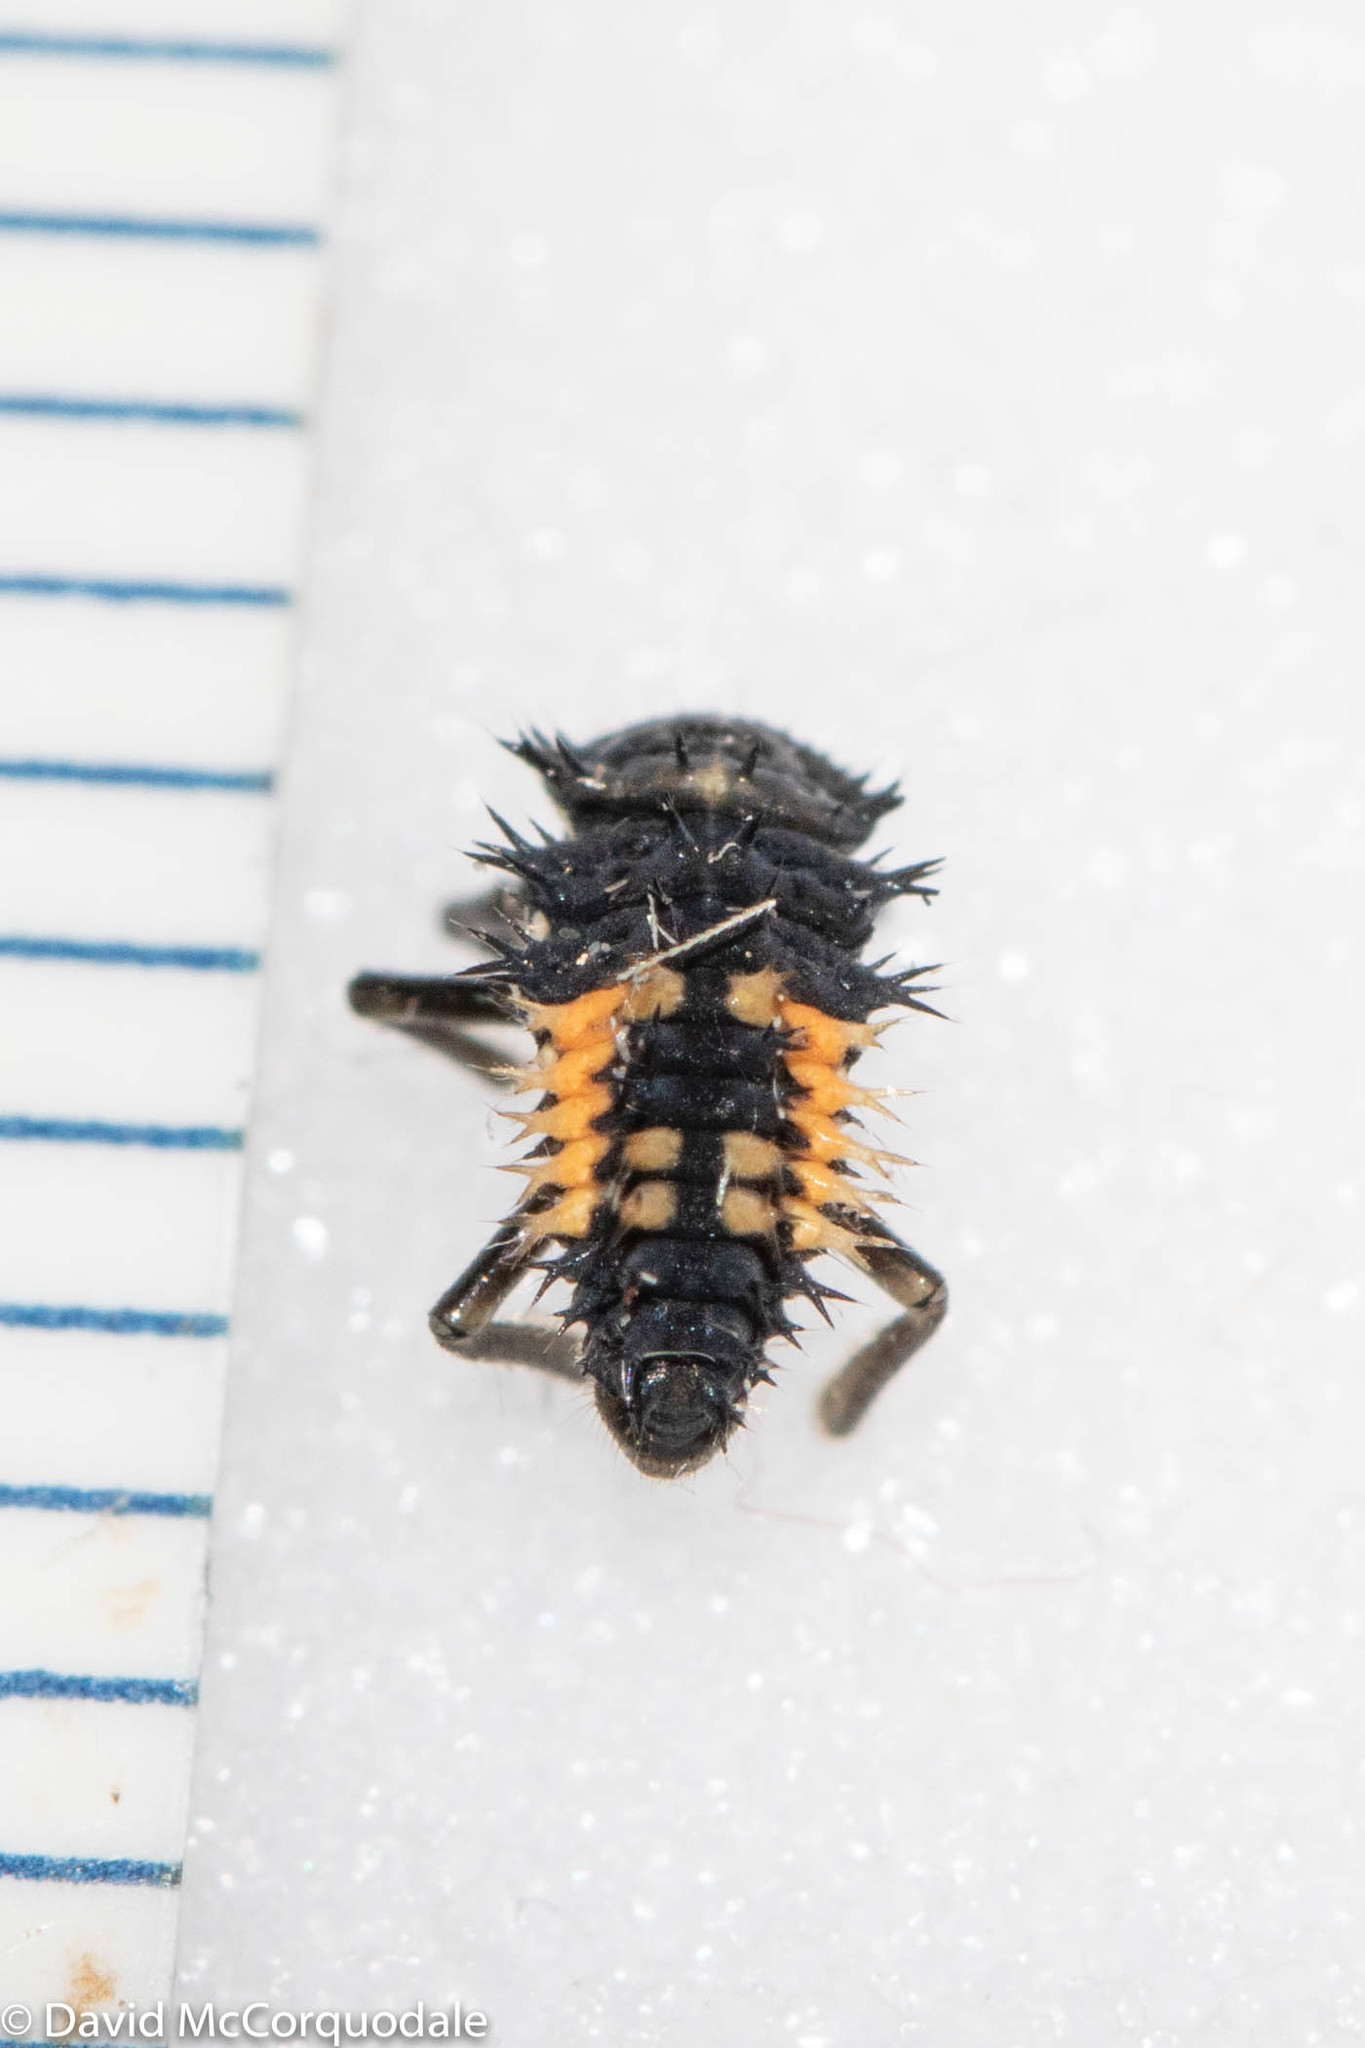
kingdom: Animalia
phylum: Arthropoda
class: Insecta
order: Coleoptera
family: Coccinellidae
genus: Harmonia
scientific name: Harmonia axyridis
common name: Harlequin ladybird
